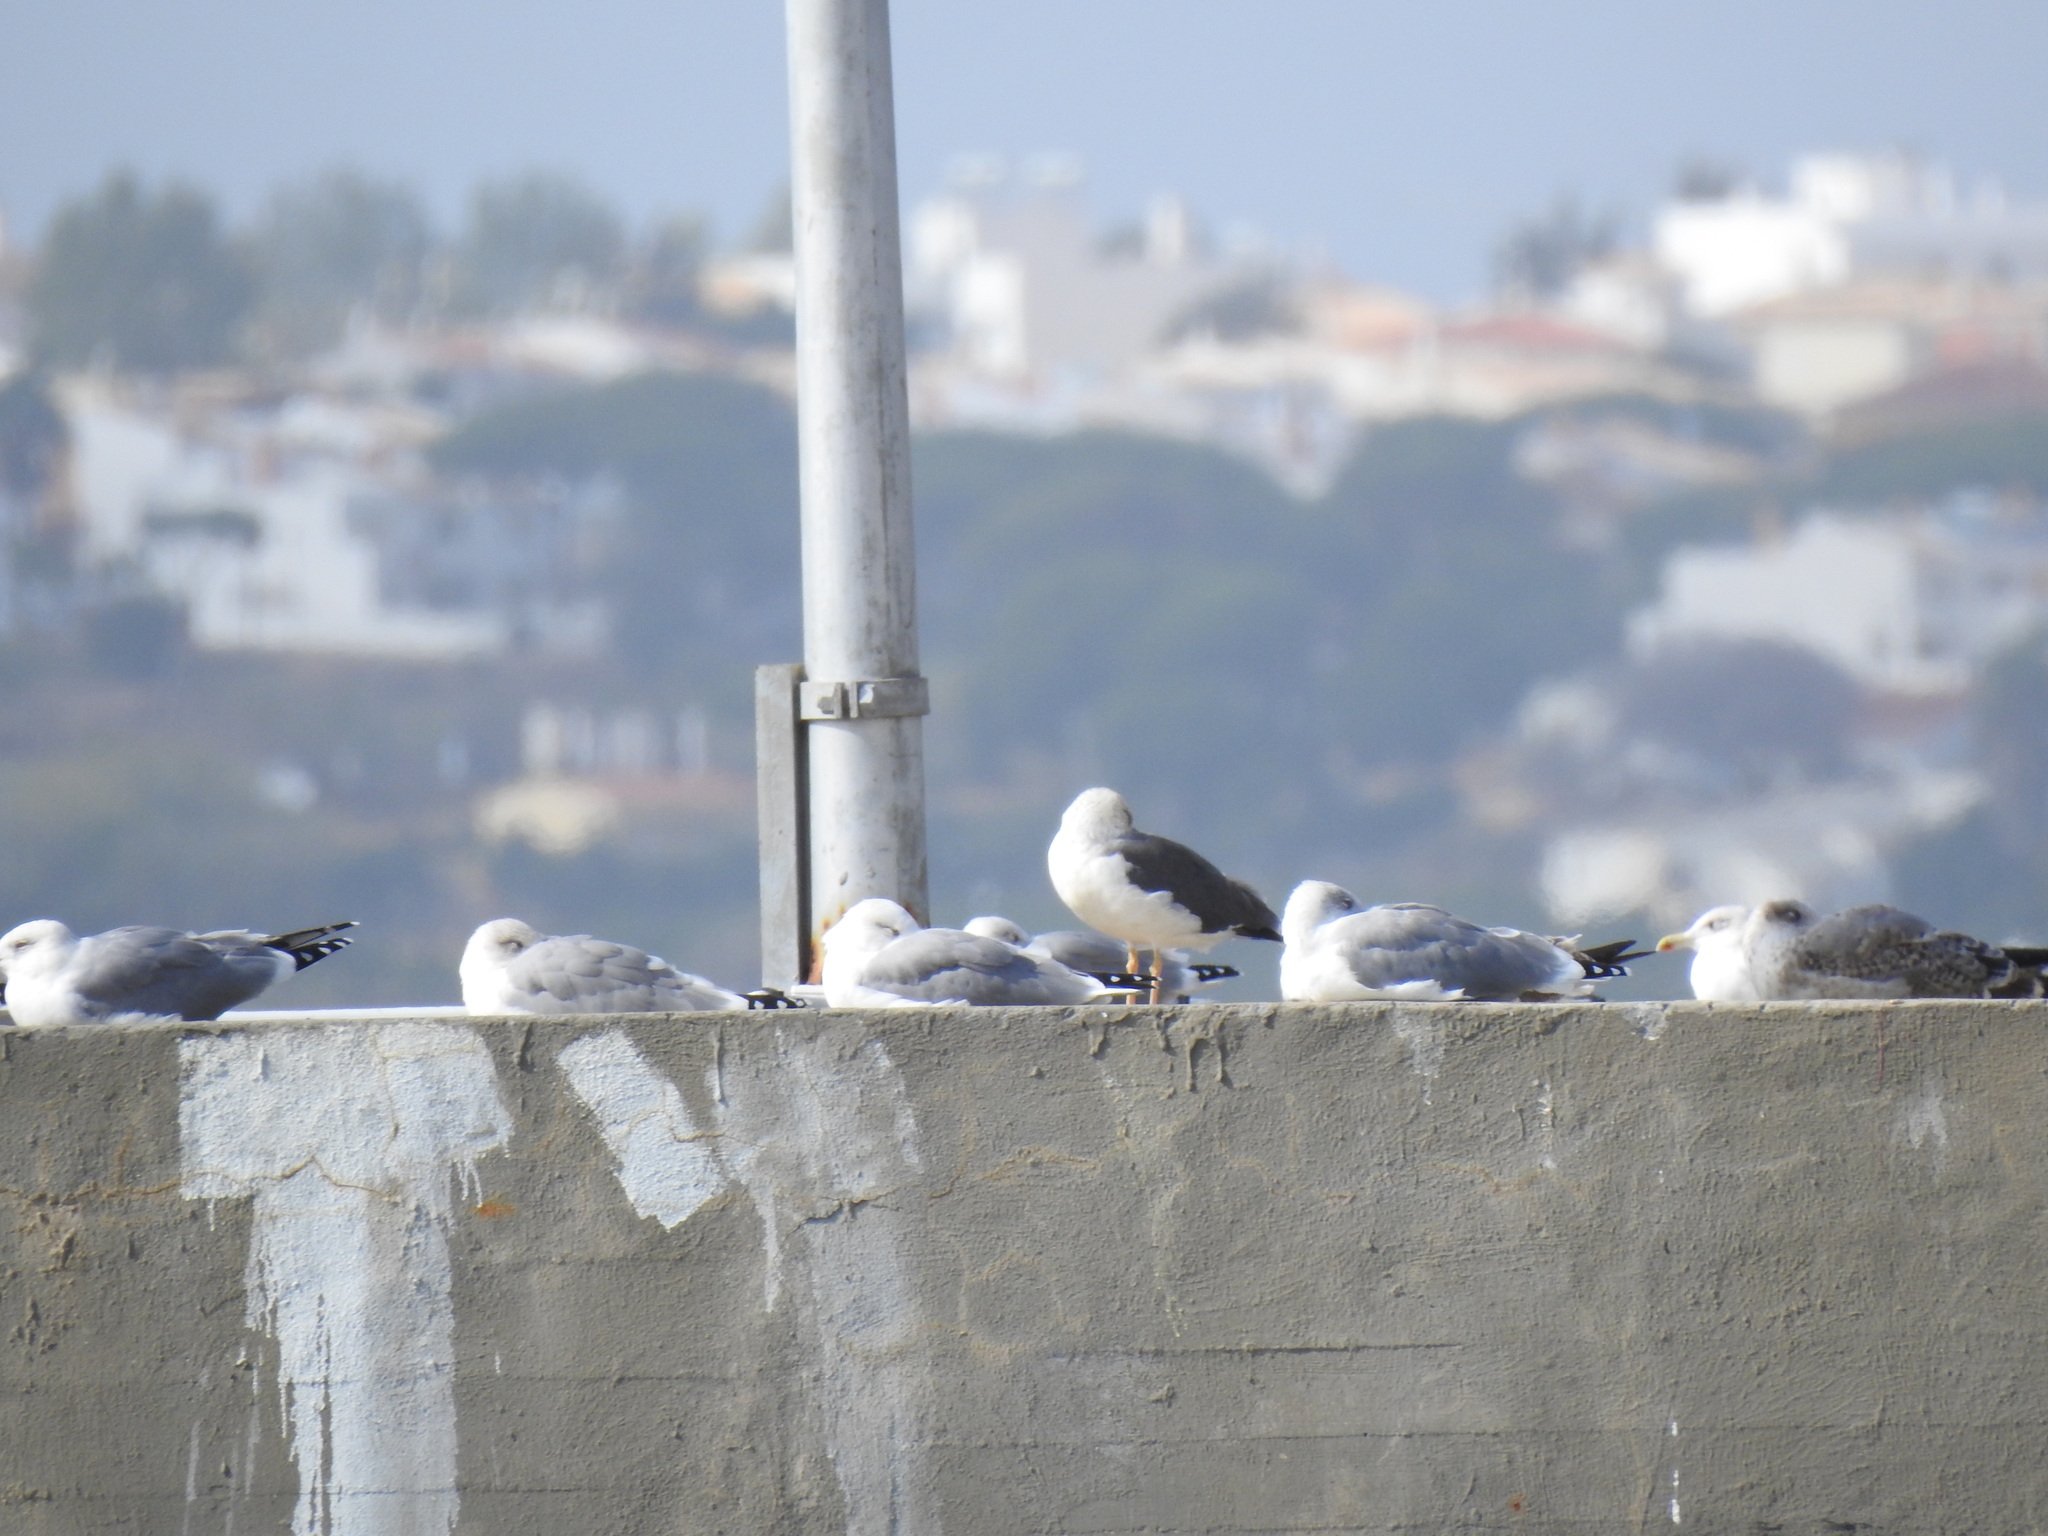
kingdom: Animalia
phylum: Chordata
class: Aves
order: Charadriiformes
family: Laridae
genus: Larus
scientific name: Larus fuscus
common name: Lesser black-backed gull
